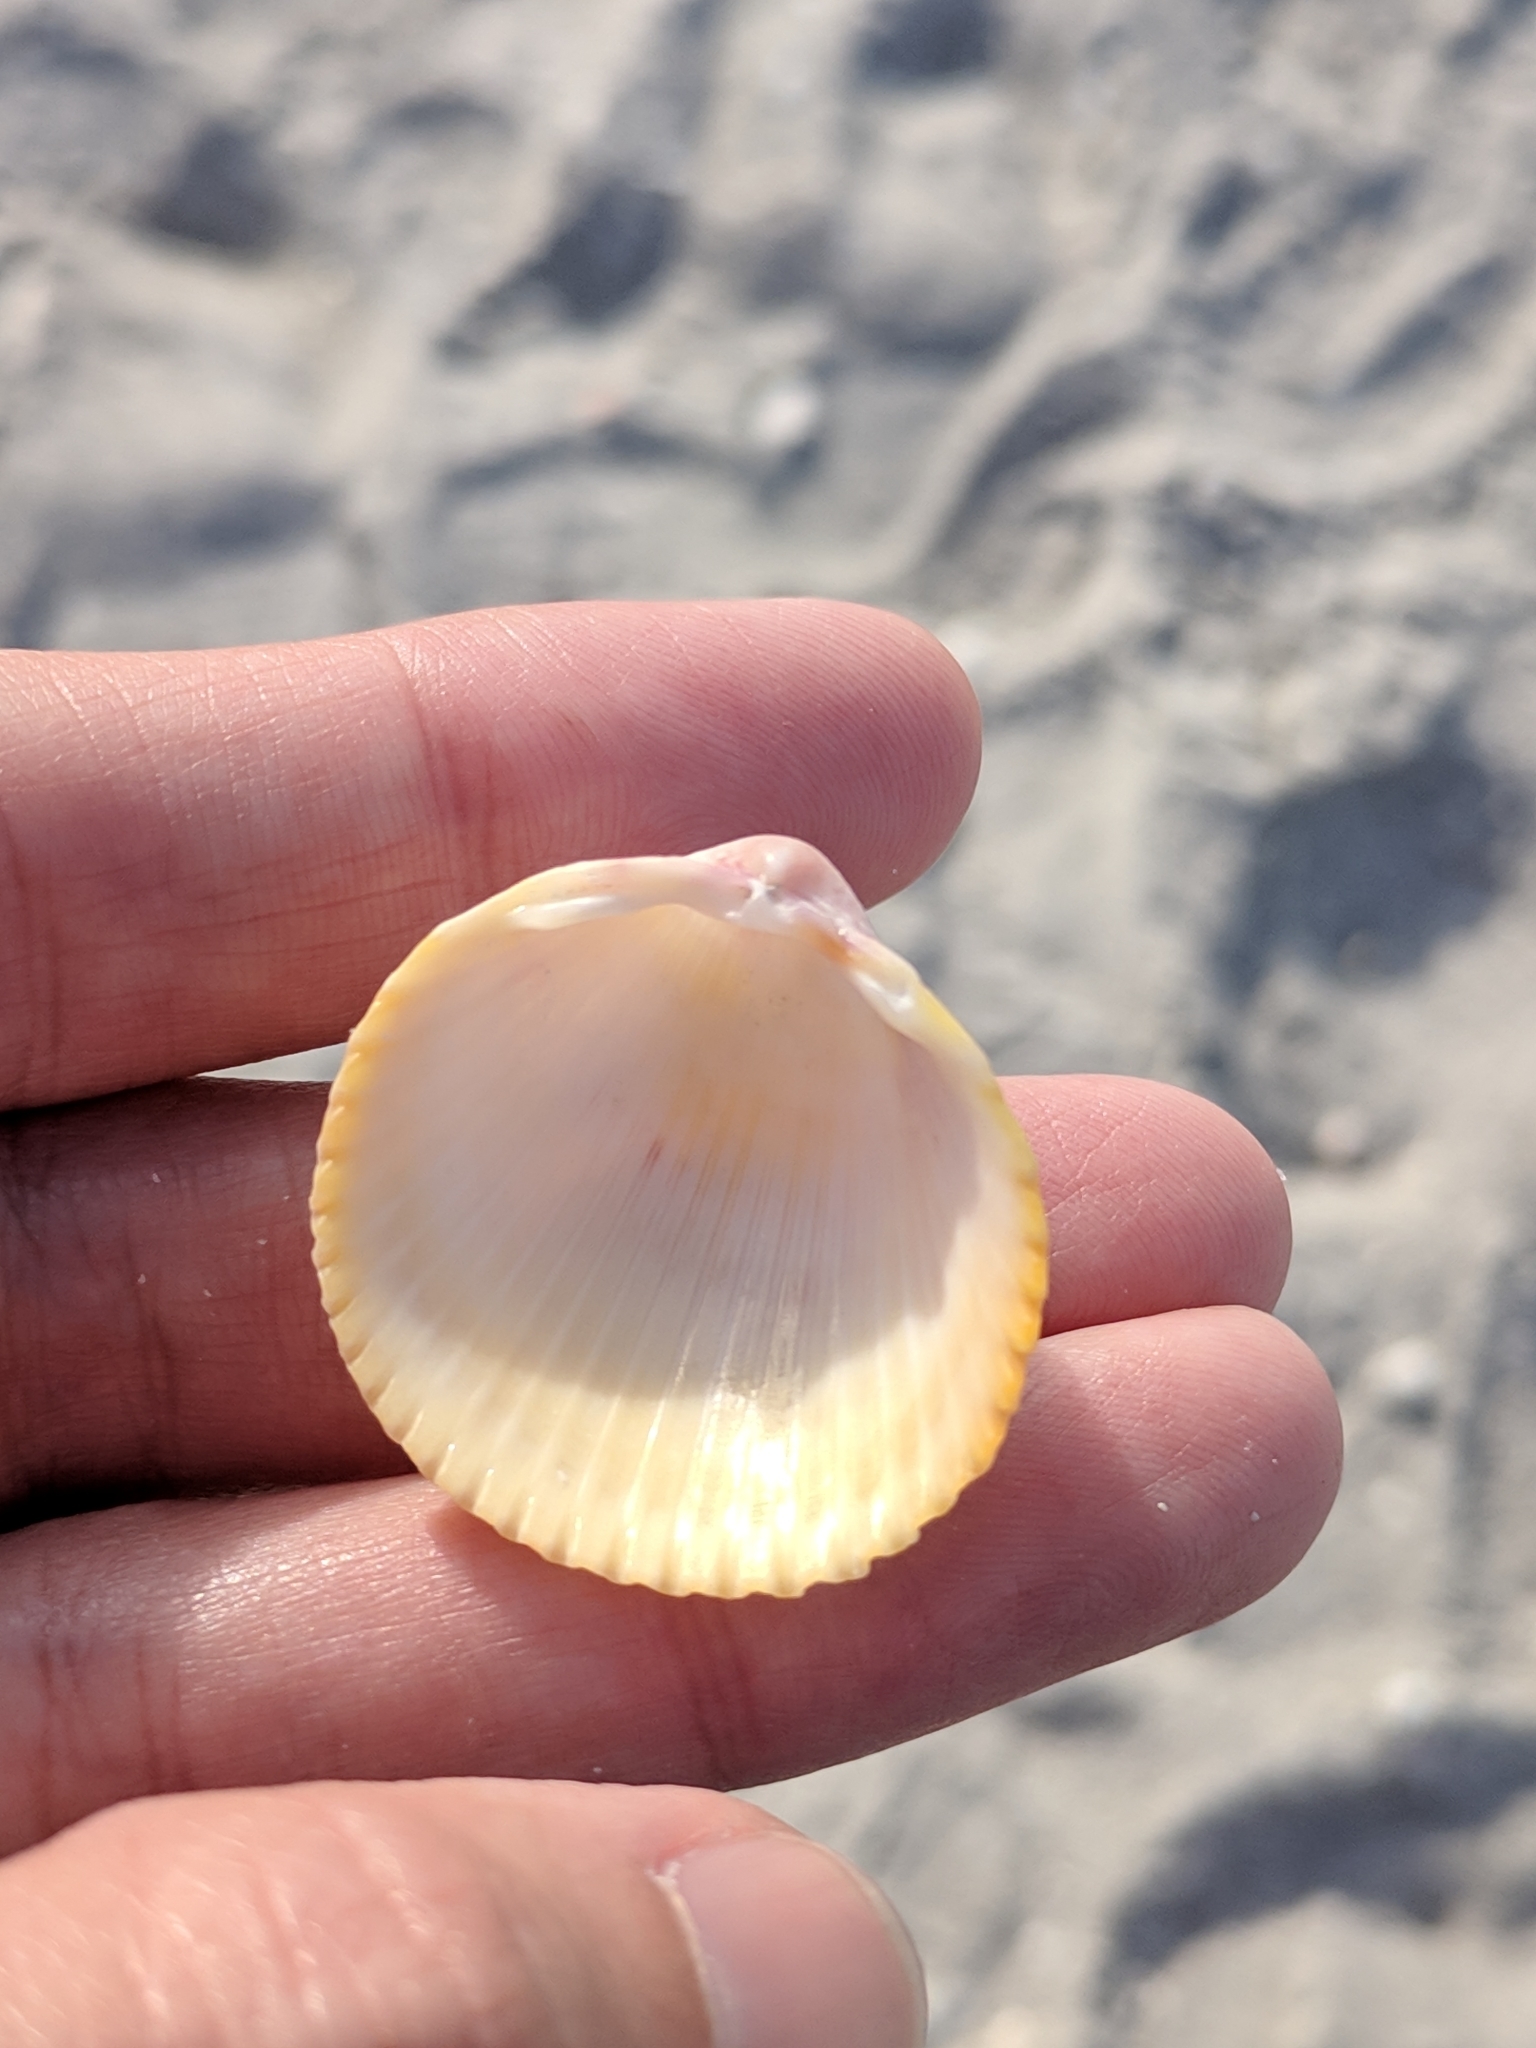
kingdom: Animalia
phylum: Mollusca
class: Bivalvia
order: Cardiida
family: Cardiidae
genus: Dallocardia
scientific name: Dallocardia muricata
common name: Yellow pricklycockle
